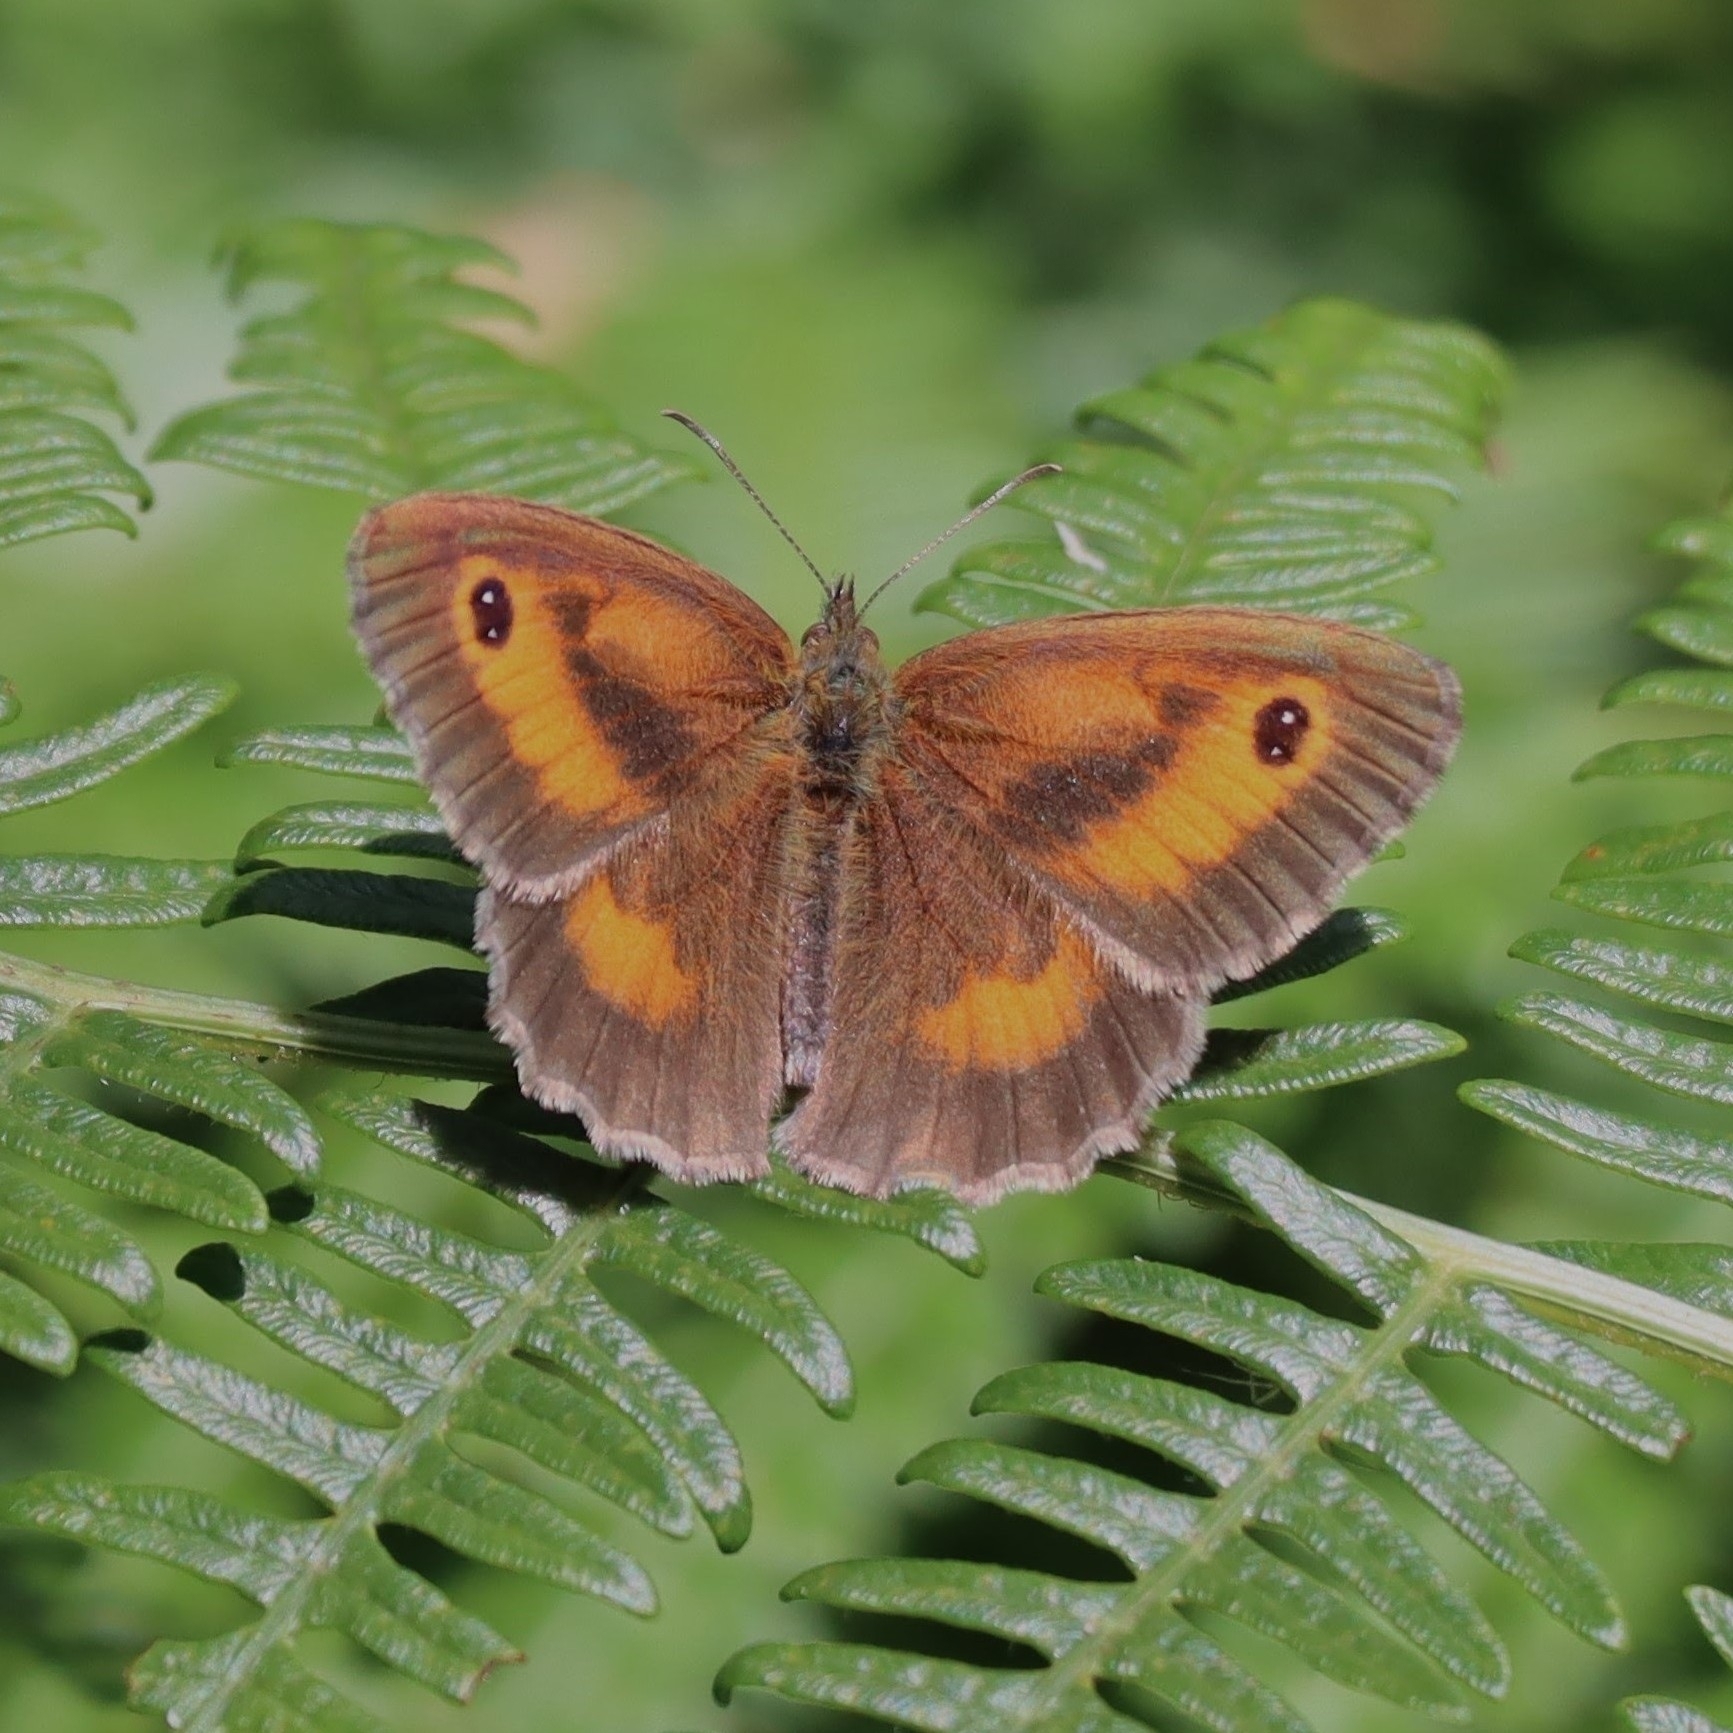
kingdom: Animalia
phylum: Arthropoda
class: Insecta
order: Lepidoptera
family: Nymphalidae
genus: Pyronia
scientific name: Pyronia tithonus
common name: Gatekeeper
